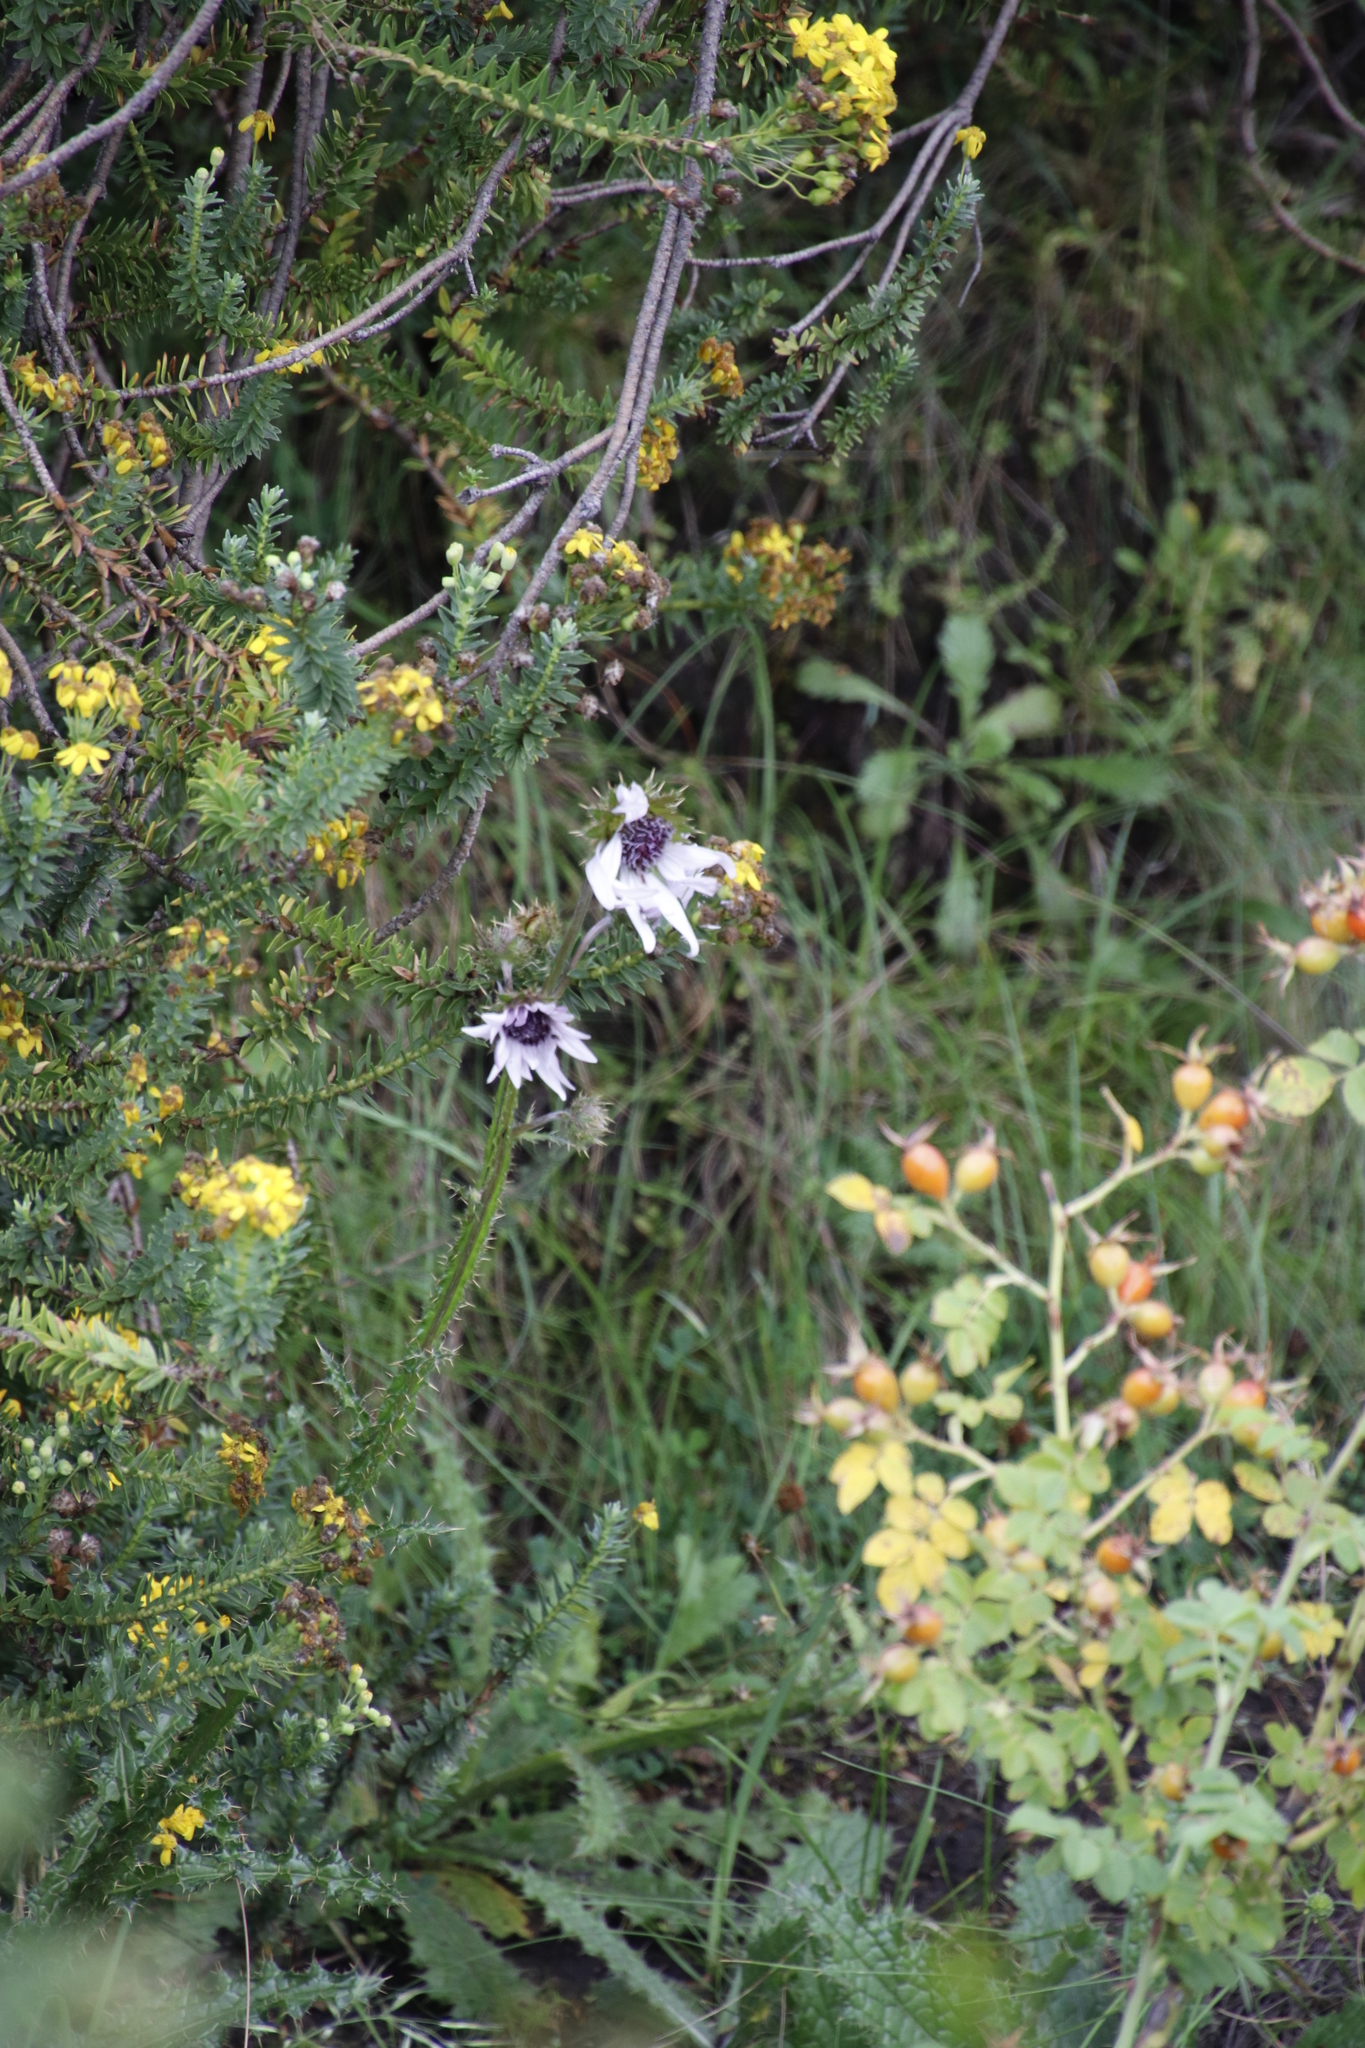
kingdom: Plantae
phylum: Tracheophyta
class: Magnoliopsida
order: Asterales
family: Asteraceae
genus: Berkheya
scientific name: Berkheya purpurea
